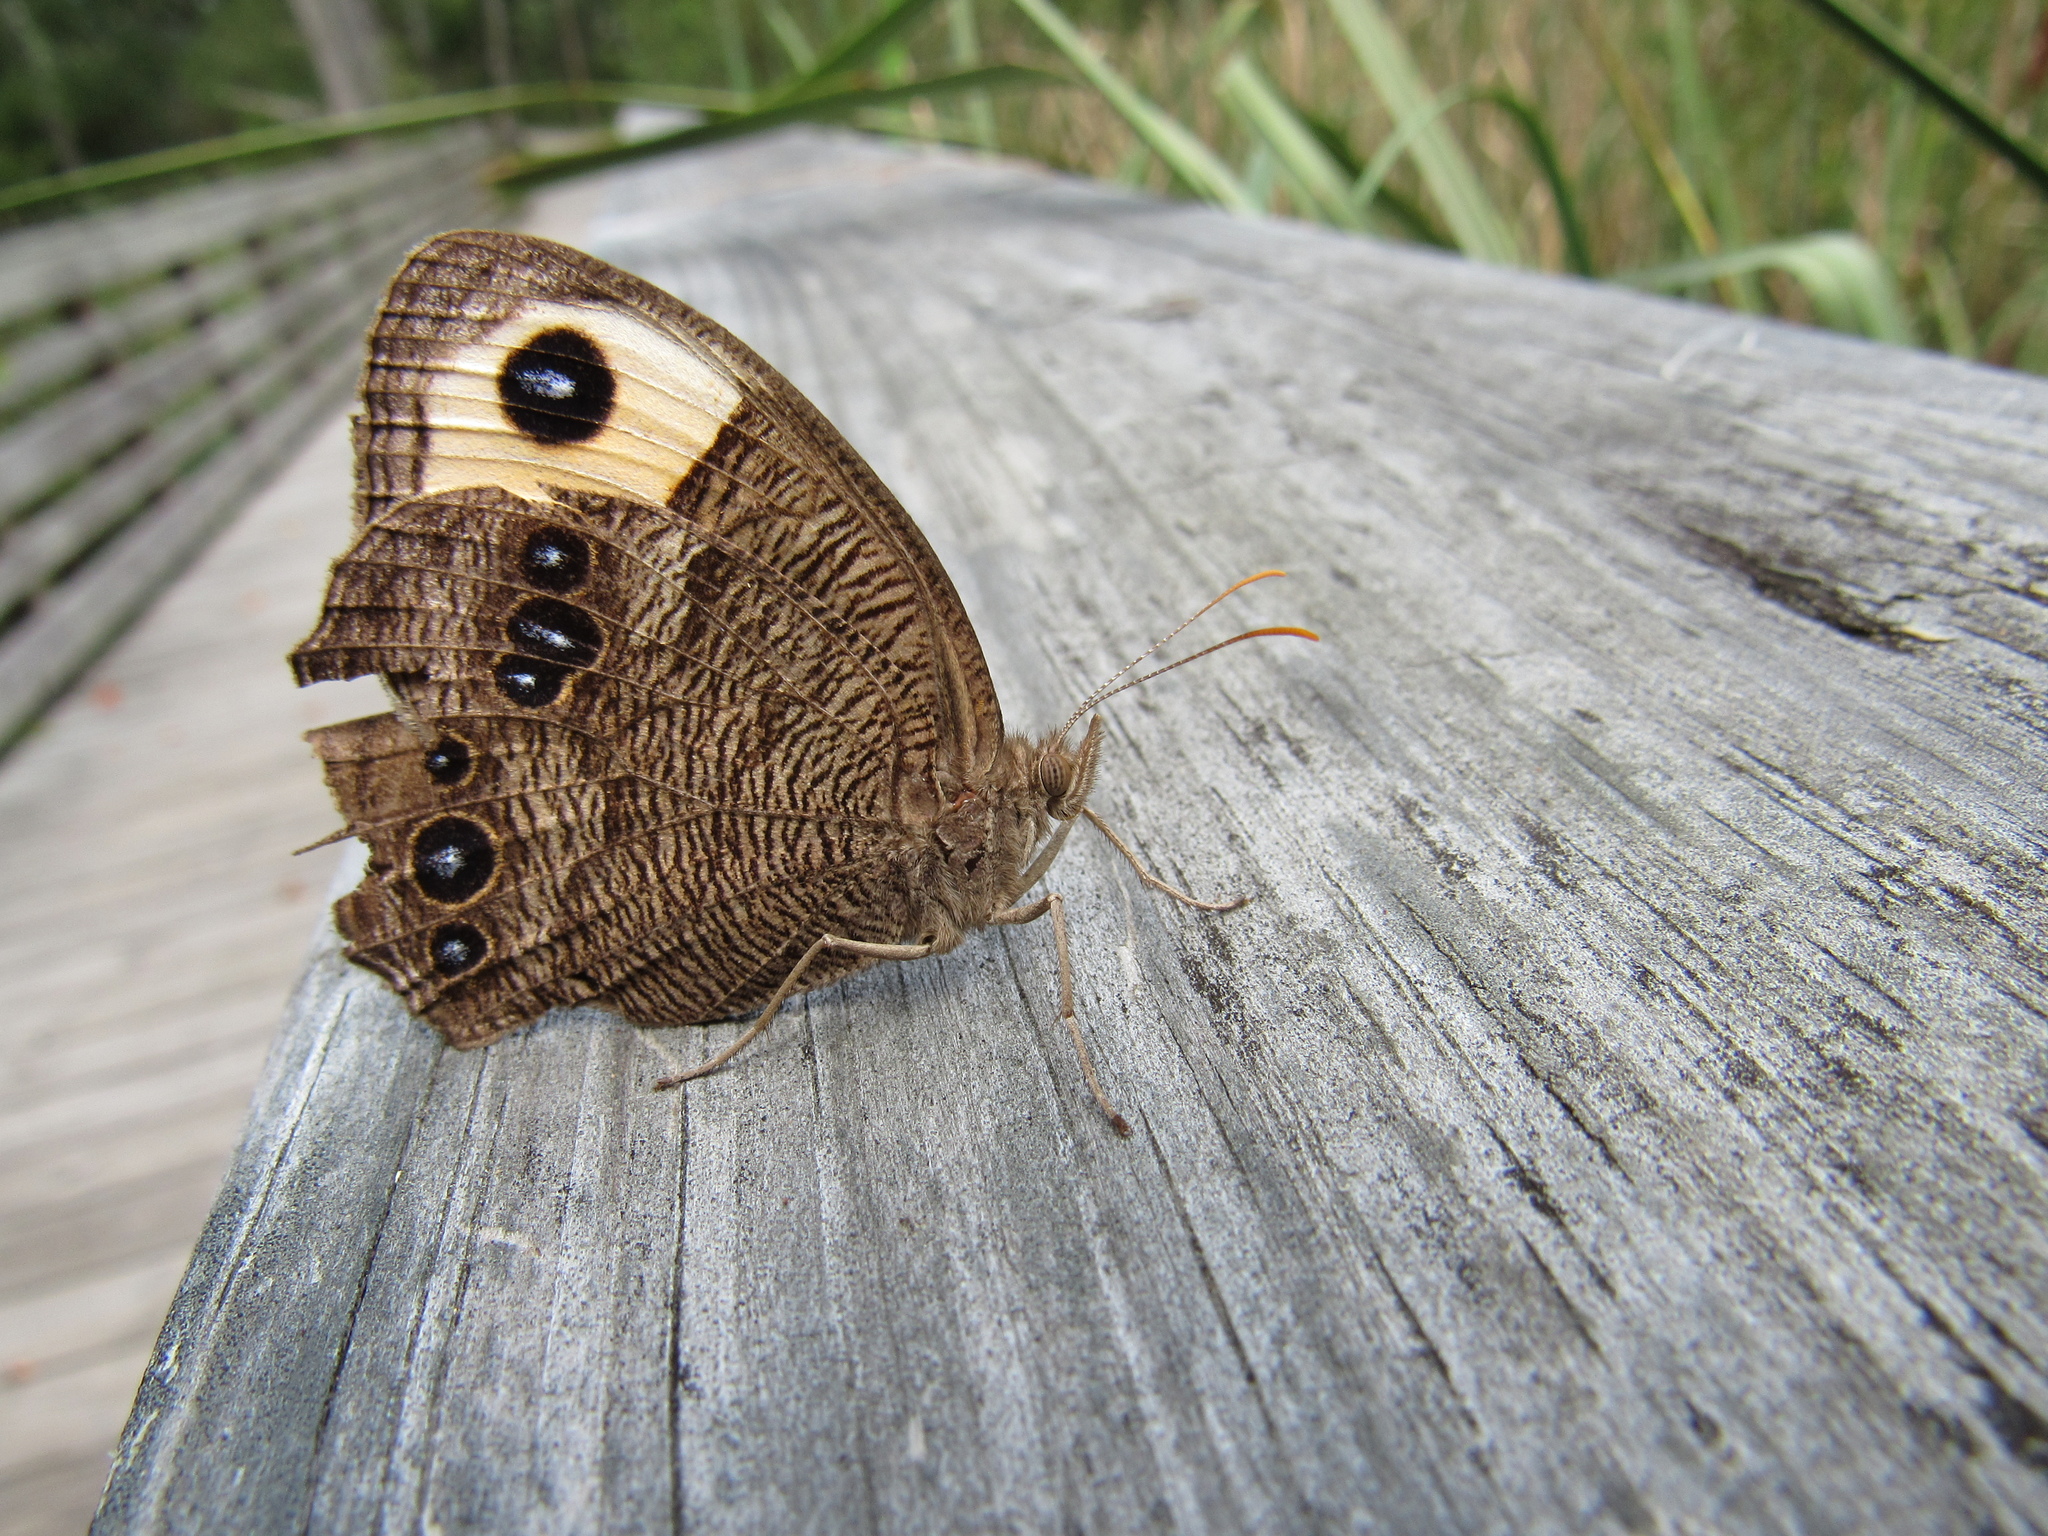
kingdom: Animalia
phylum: Arthropoda
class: Insecta
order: Lepidoptera
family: Nymphalidae
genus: Cercyonis
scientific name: Cercyonis pegala
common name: Common wood-nymph
